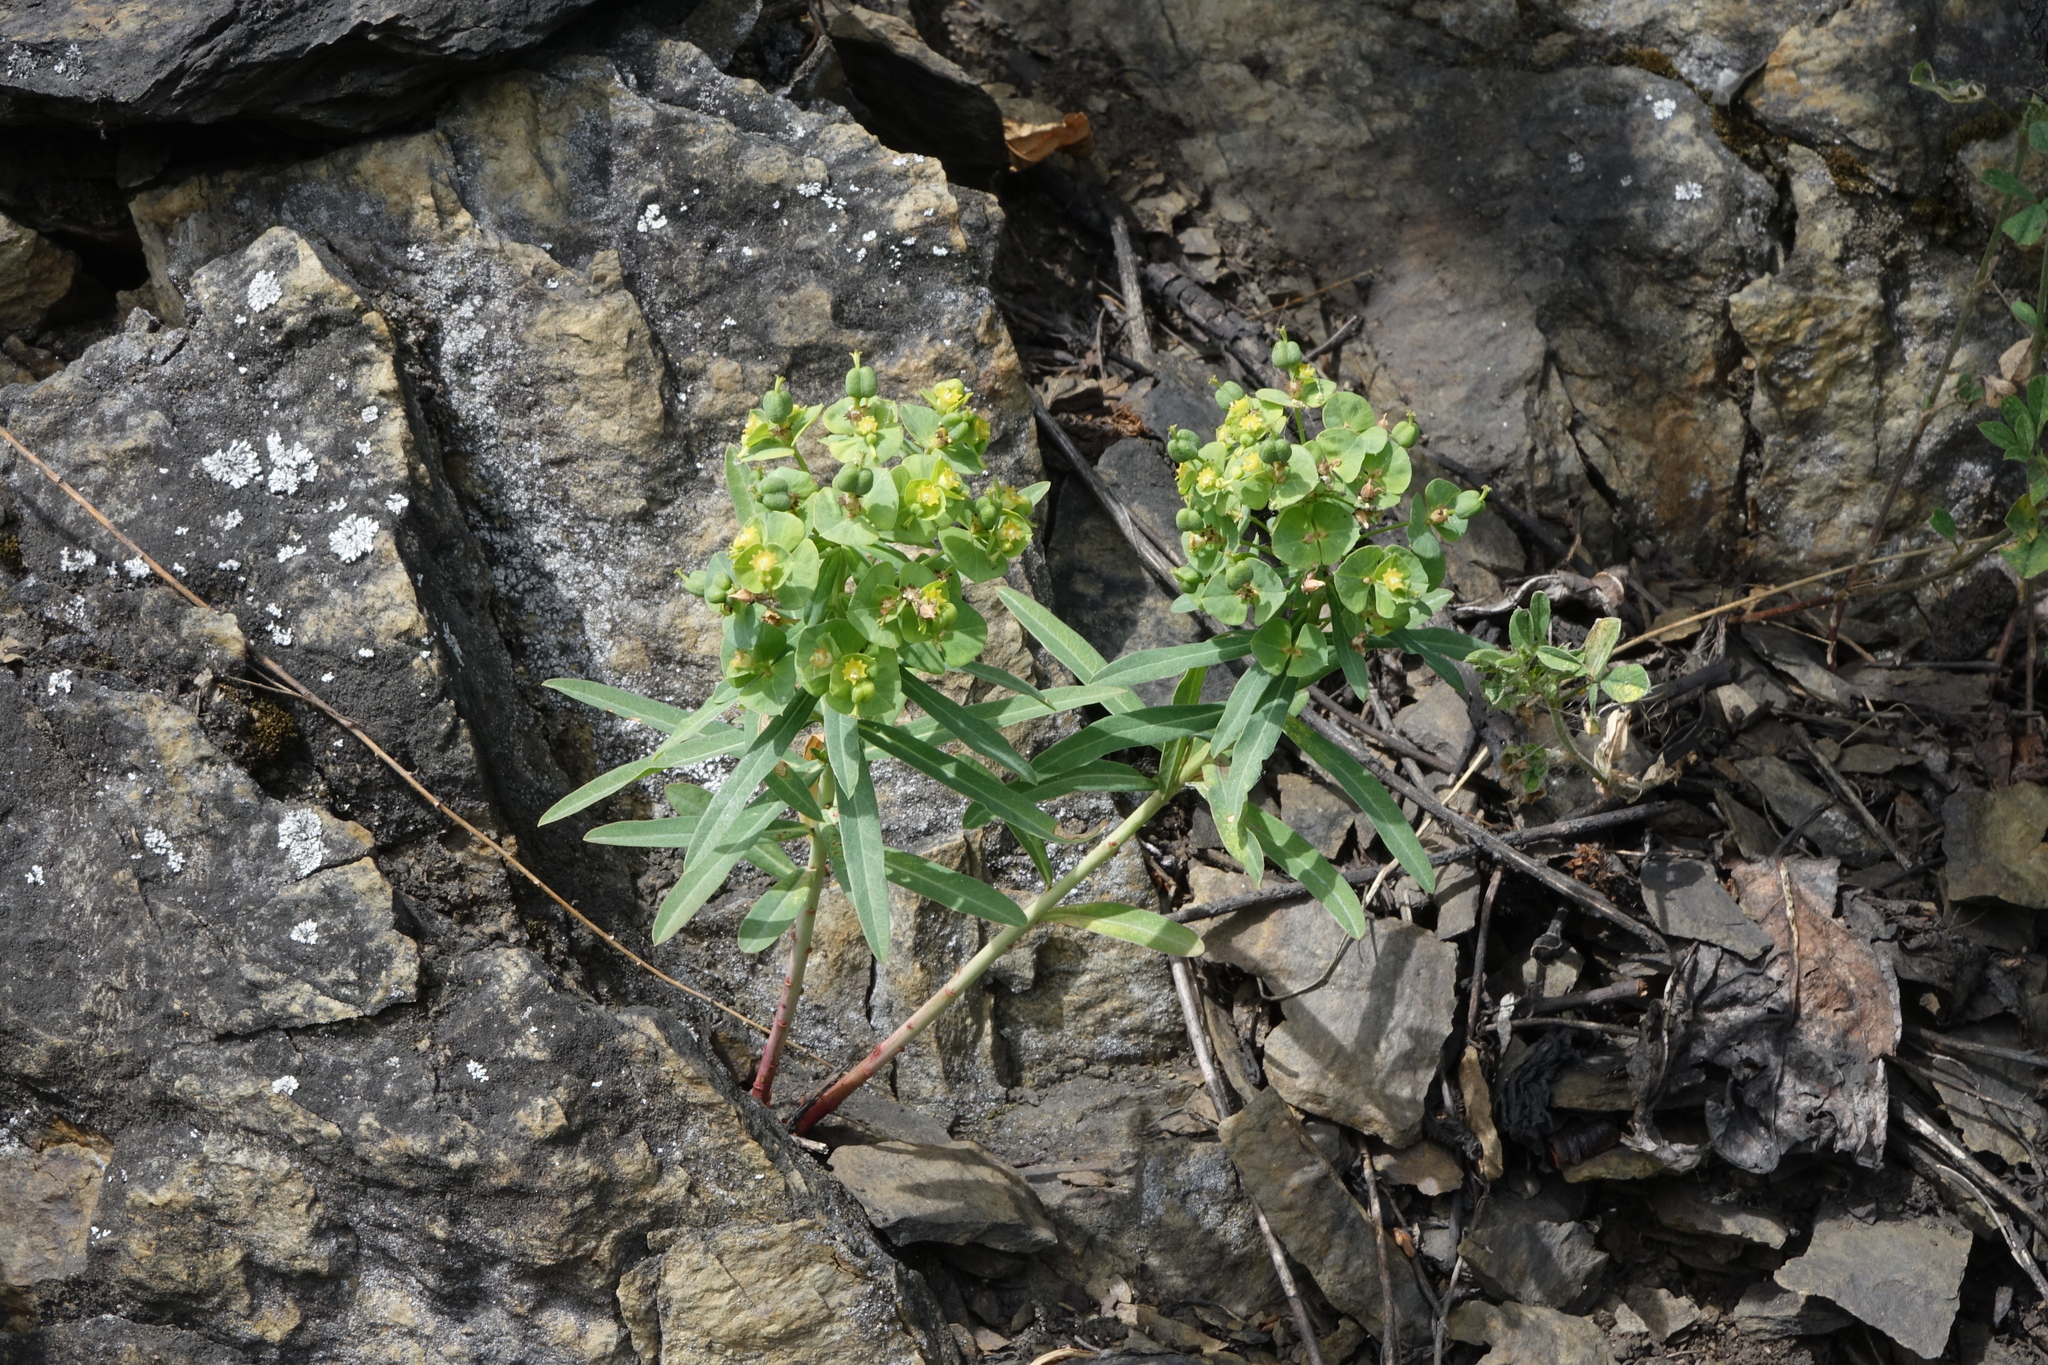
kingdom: Plantae
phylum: Tracheophyta
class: Magnoliopsida
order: Malpighiales
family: Euphorbiaceae
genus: Euphorbia
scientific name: Euphorbia caesia
